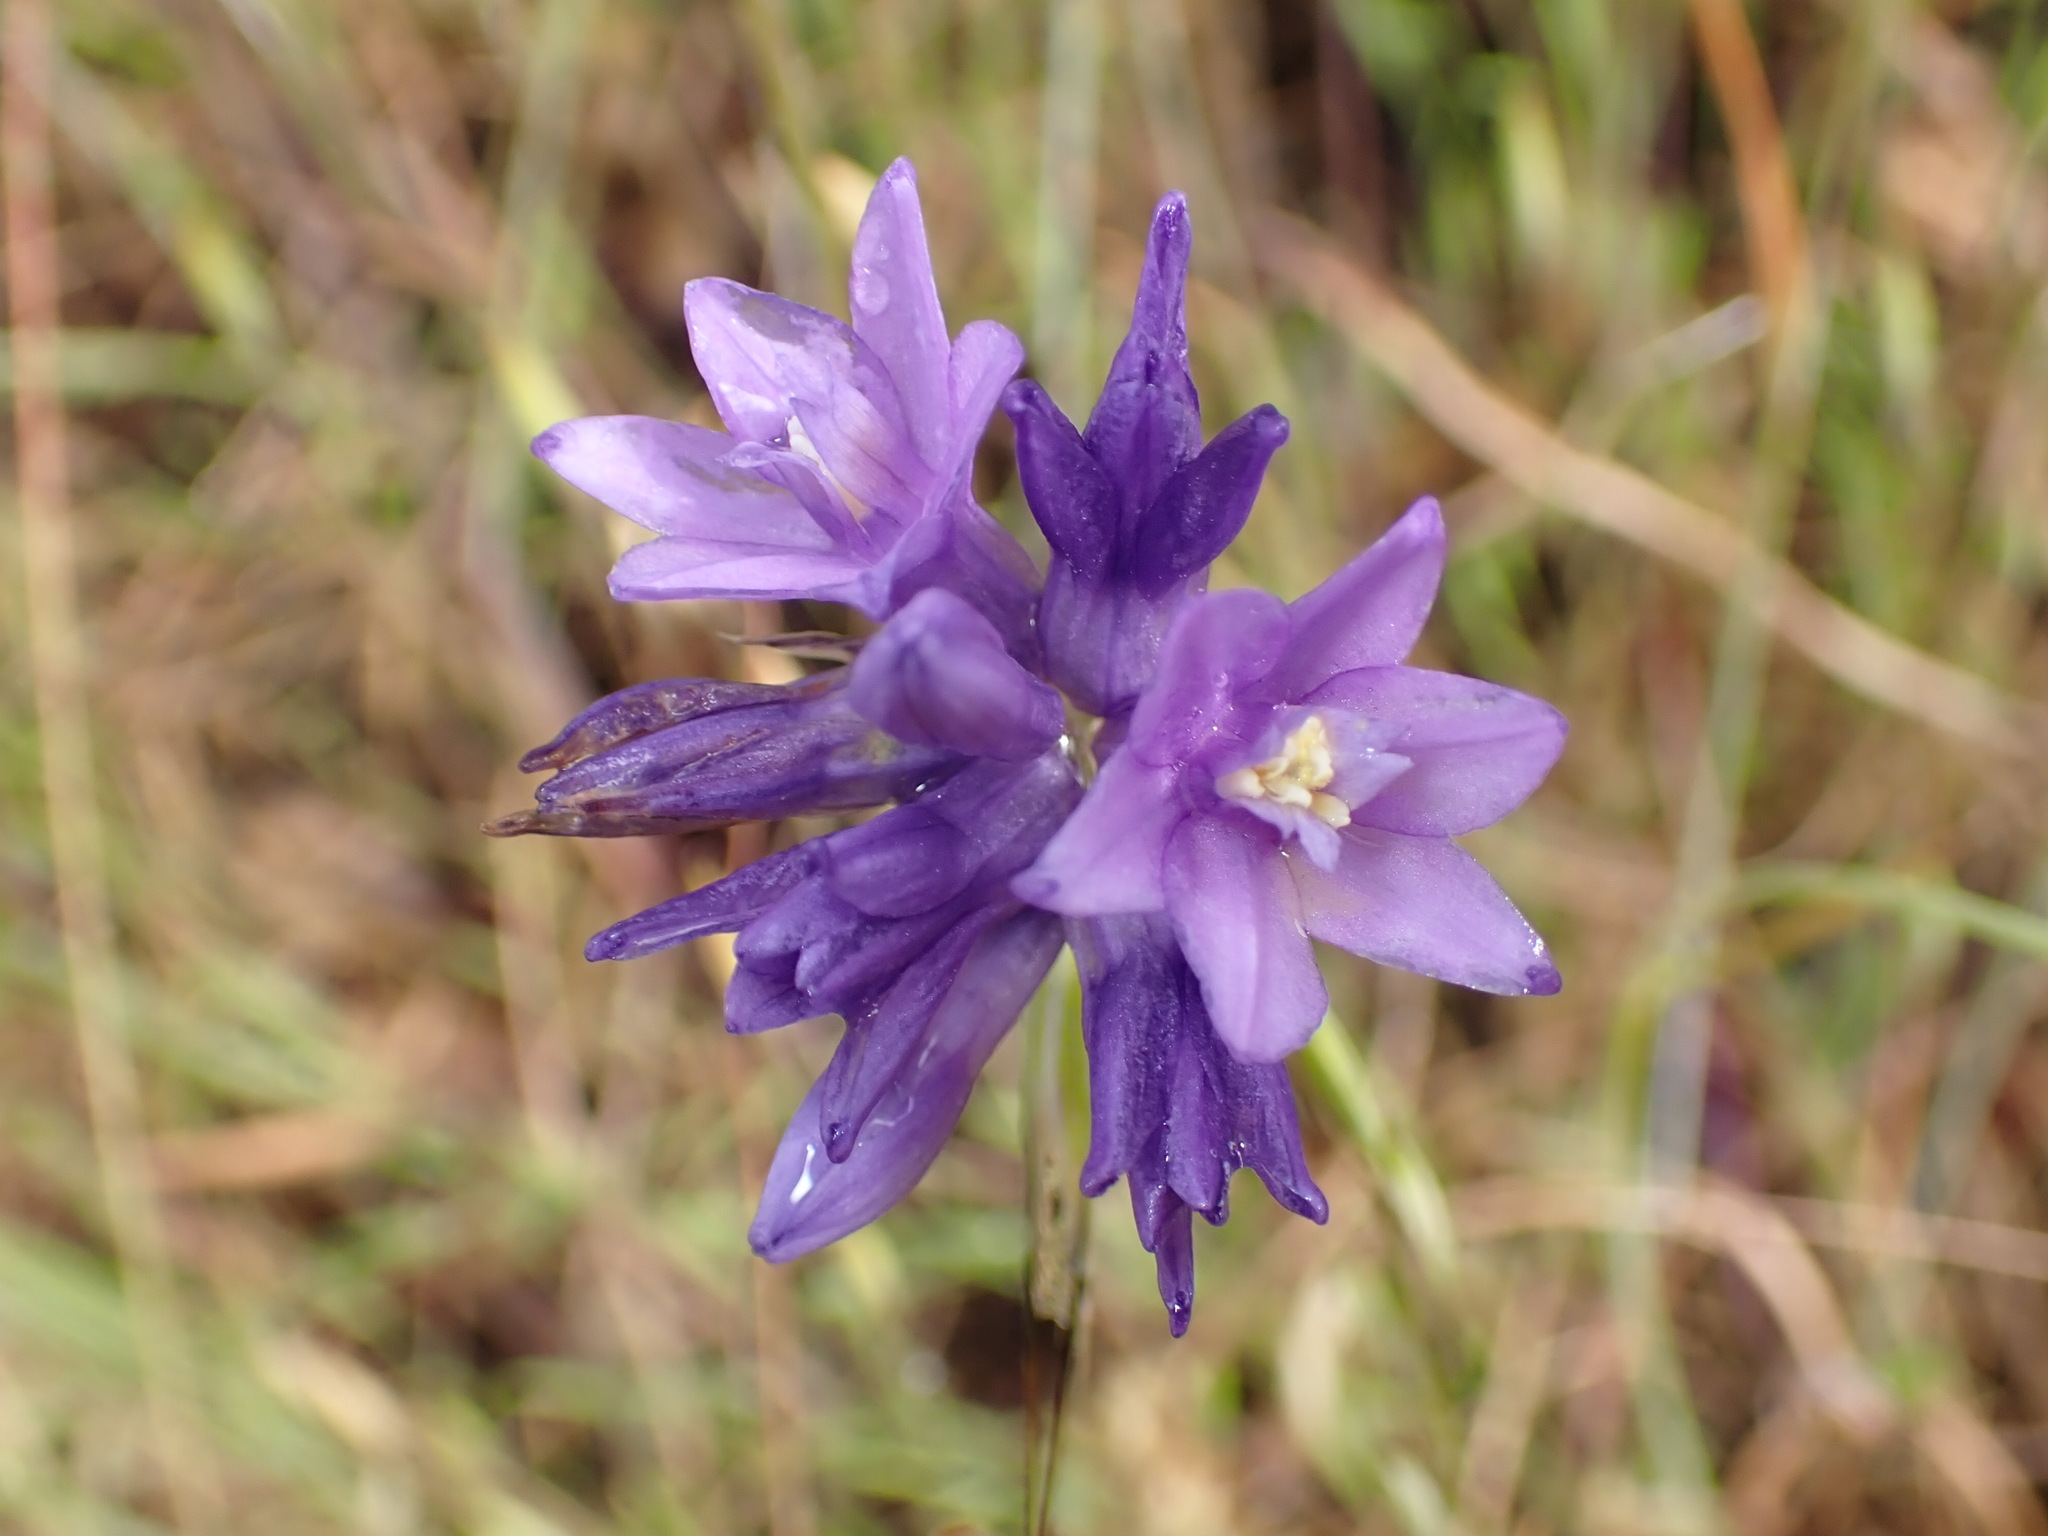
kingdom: Plantae
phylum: Tracheophyta
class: Liliopsida
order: Asparagales
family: Asparagaceae
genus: Dipterostemon
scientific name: Dipterostemon capitatus
